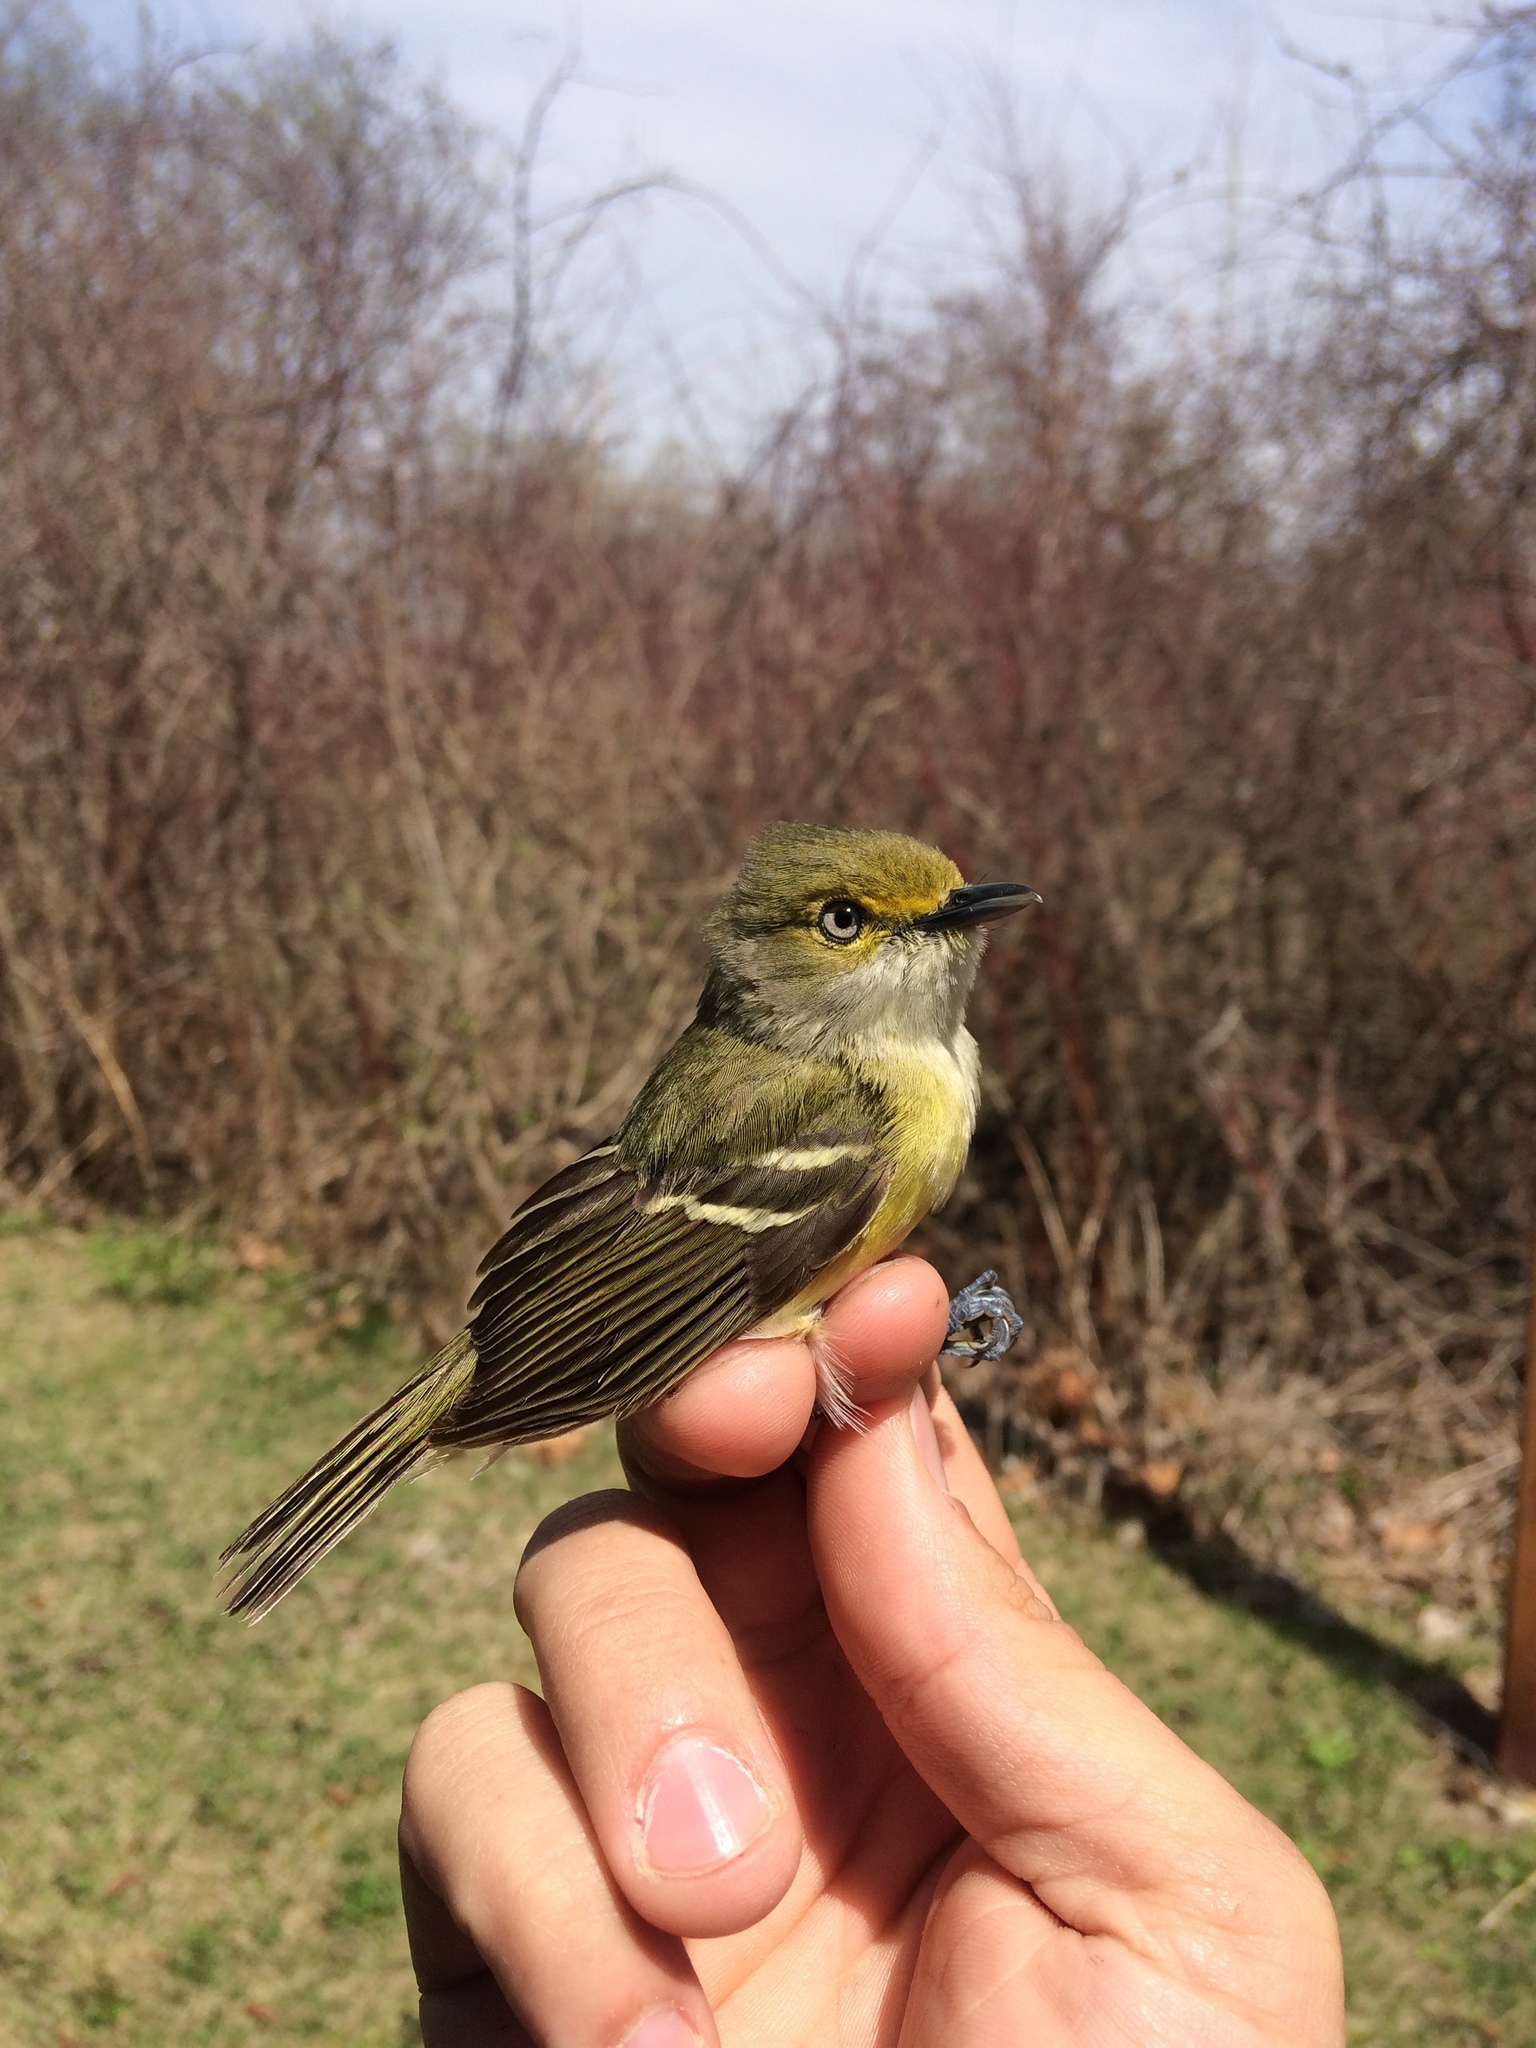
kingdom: Animalia
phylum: Chordata
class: Aves
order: Passeriformes
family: Vireonidae
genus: Vireo
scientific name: Vireo griseus
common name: White-eyed vireo
